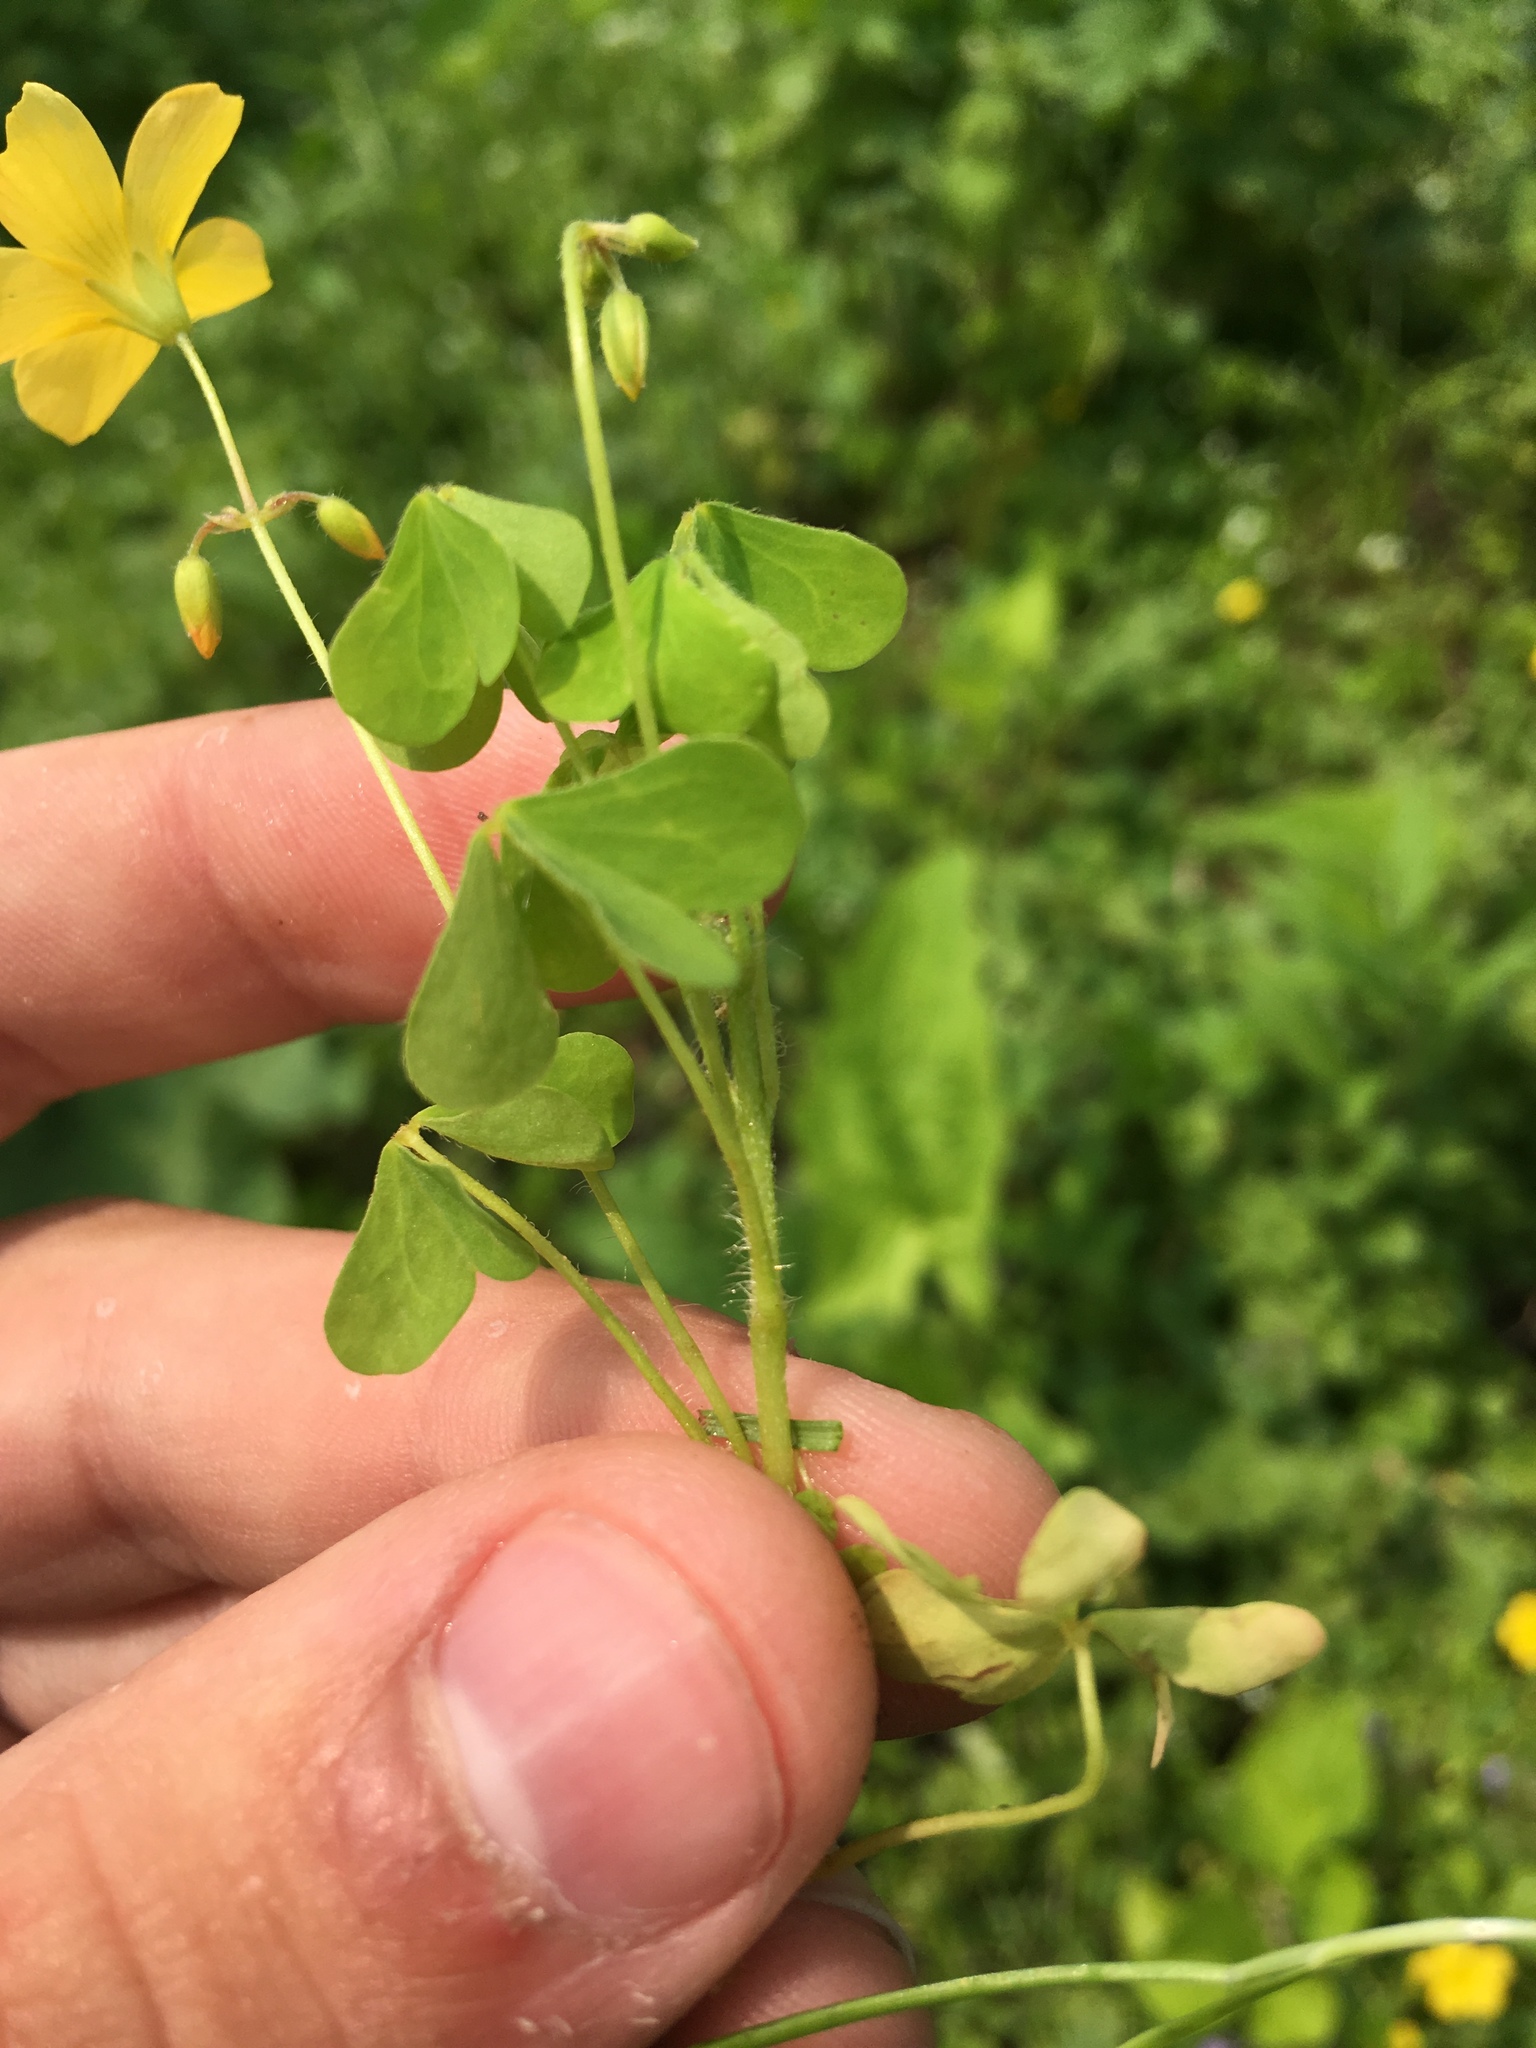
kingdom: Plantae
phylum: Tracheophyta
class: Magnoliopsida
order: Oxalidales
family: Oxalidaceae
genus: Oxalis
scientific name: Oxalis stricta
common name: Upright yellow-sorrel
